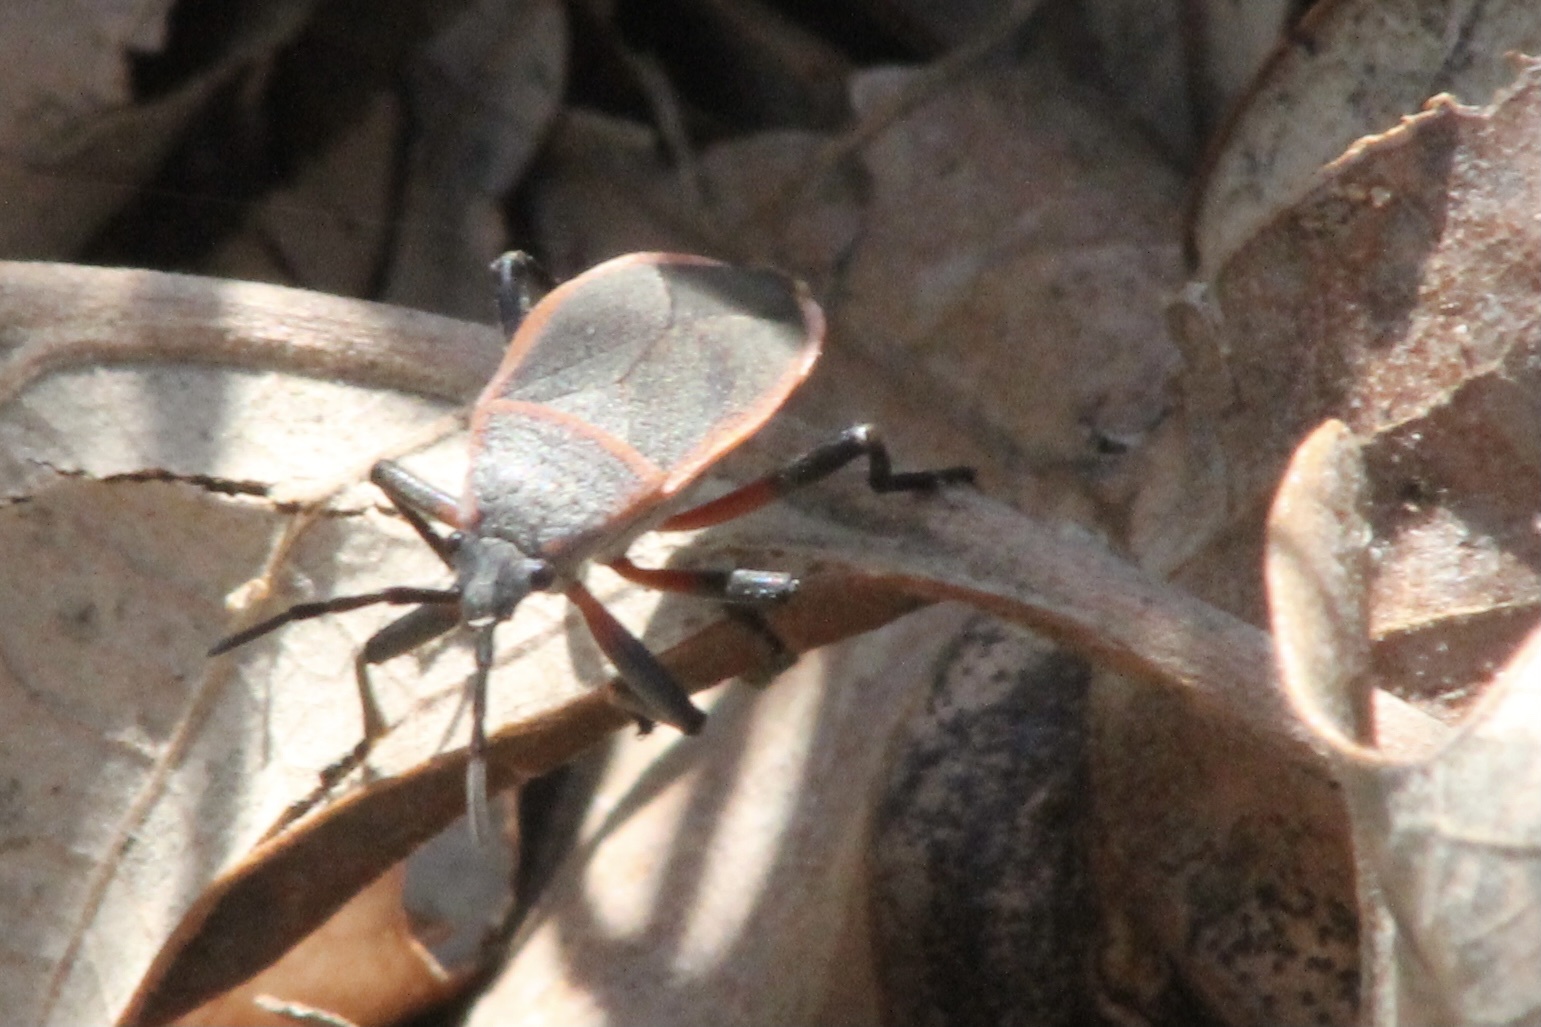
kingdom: Animalia
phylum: Arthropoda
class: Insecta
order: Hemiptera
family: Largidae
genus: Largus
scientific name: Largus succinctus
